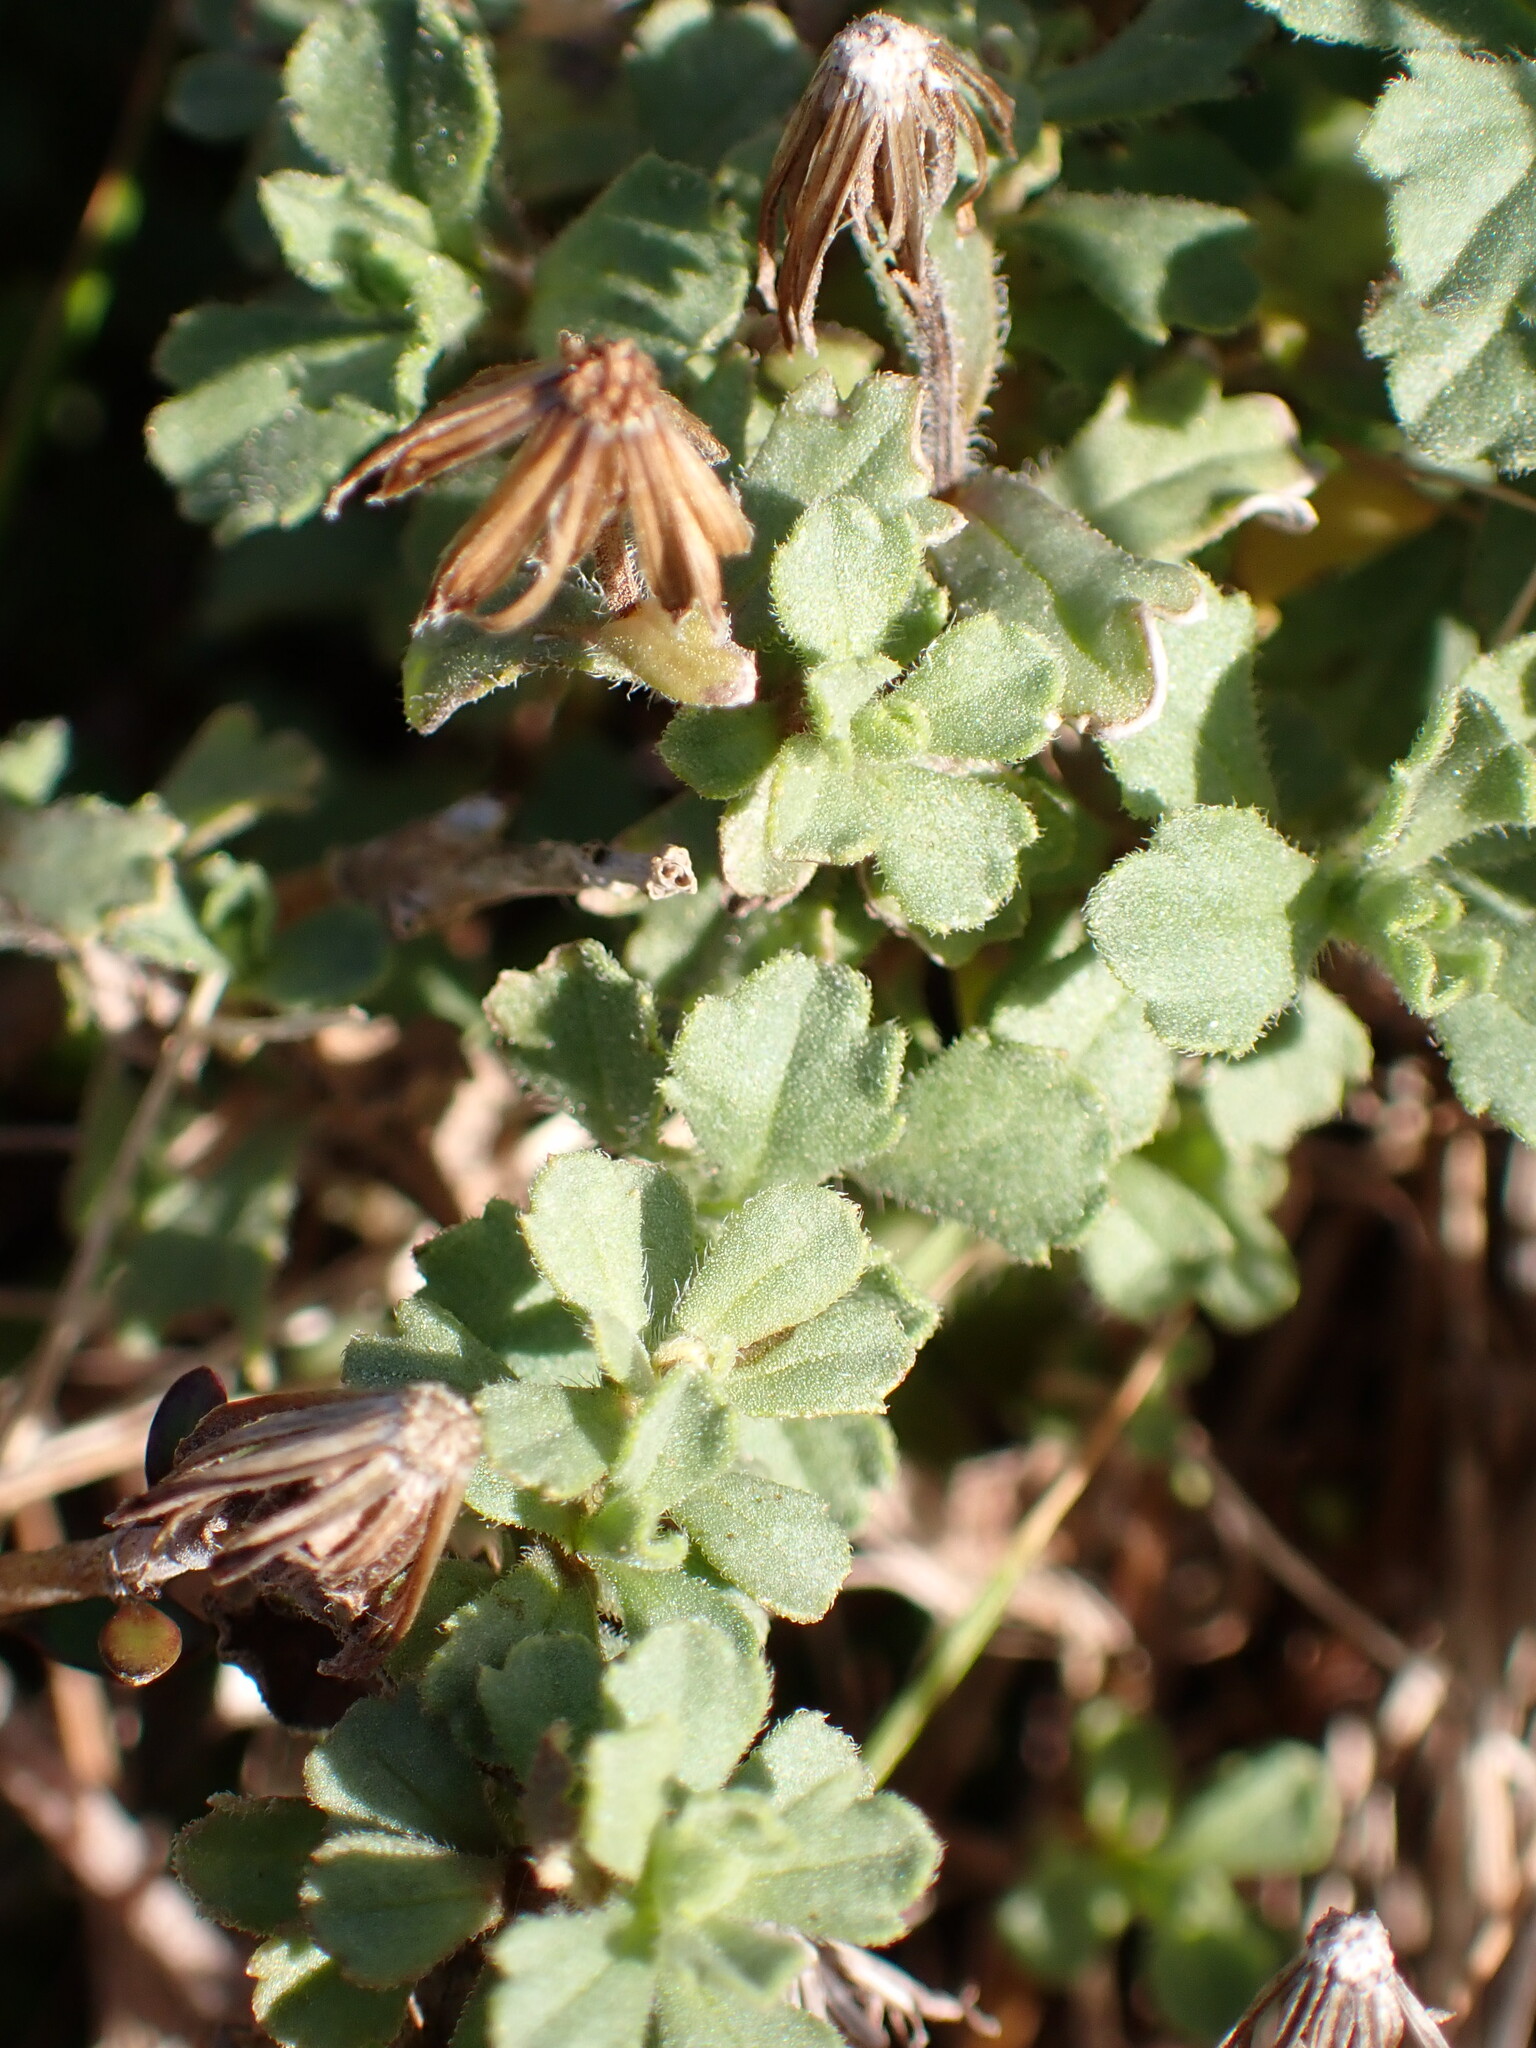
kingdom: Plantae
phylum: Tracheophyta
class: Magnoliopsida
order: Asterales
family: Asteraceae
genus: Vittadinia
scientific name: Vittadinia australis
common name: White fuzzweed
